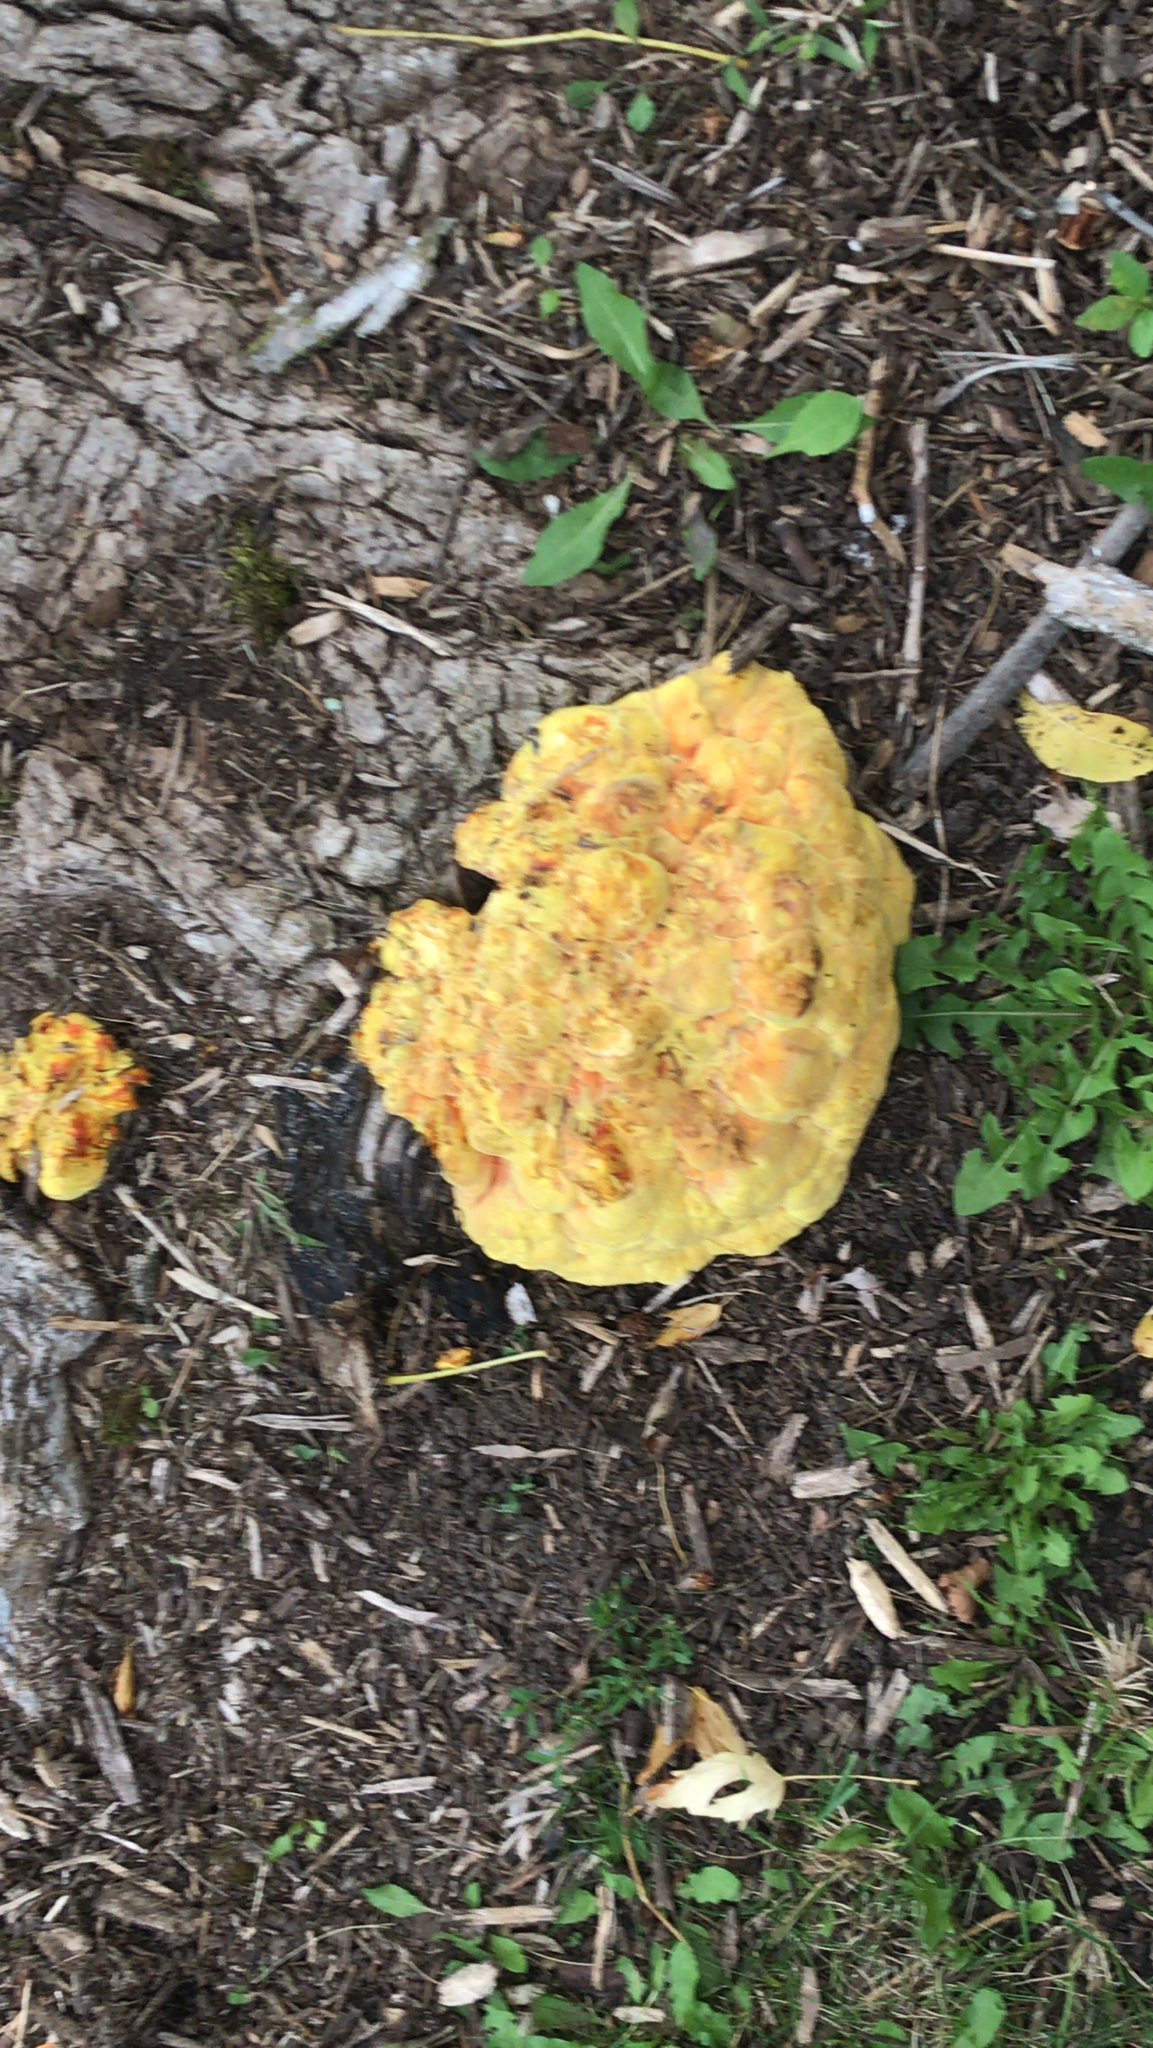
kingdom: Fungi
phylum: Ascomycota
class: Sordariomycetes
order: Hypocreales
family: Hypocreaceae
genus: Hypomyces
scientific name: Hypomyces lactifluorum
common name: Lobster mushroom
